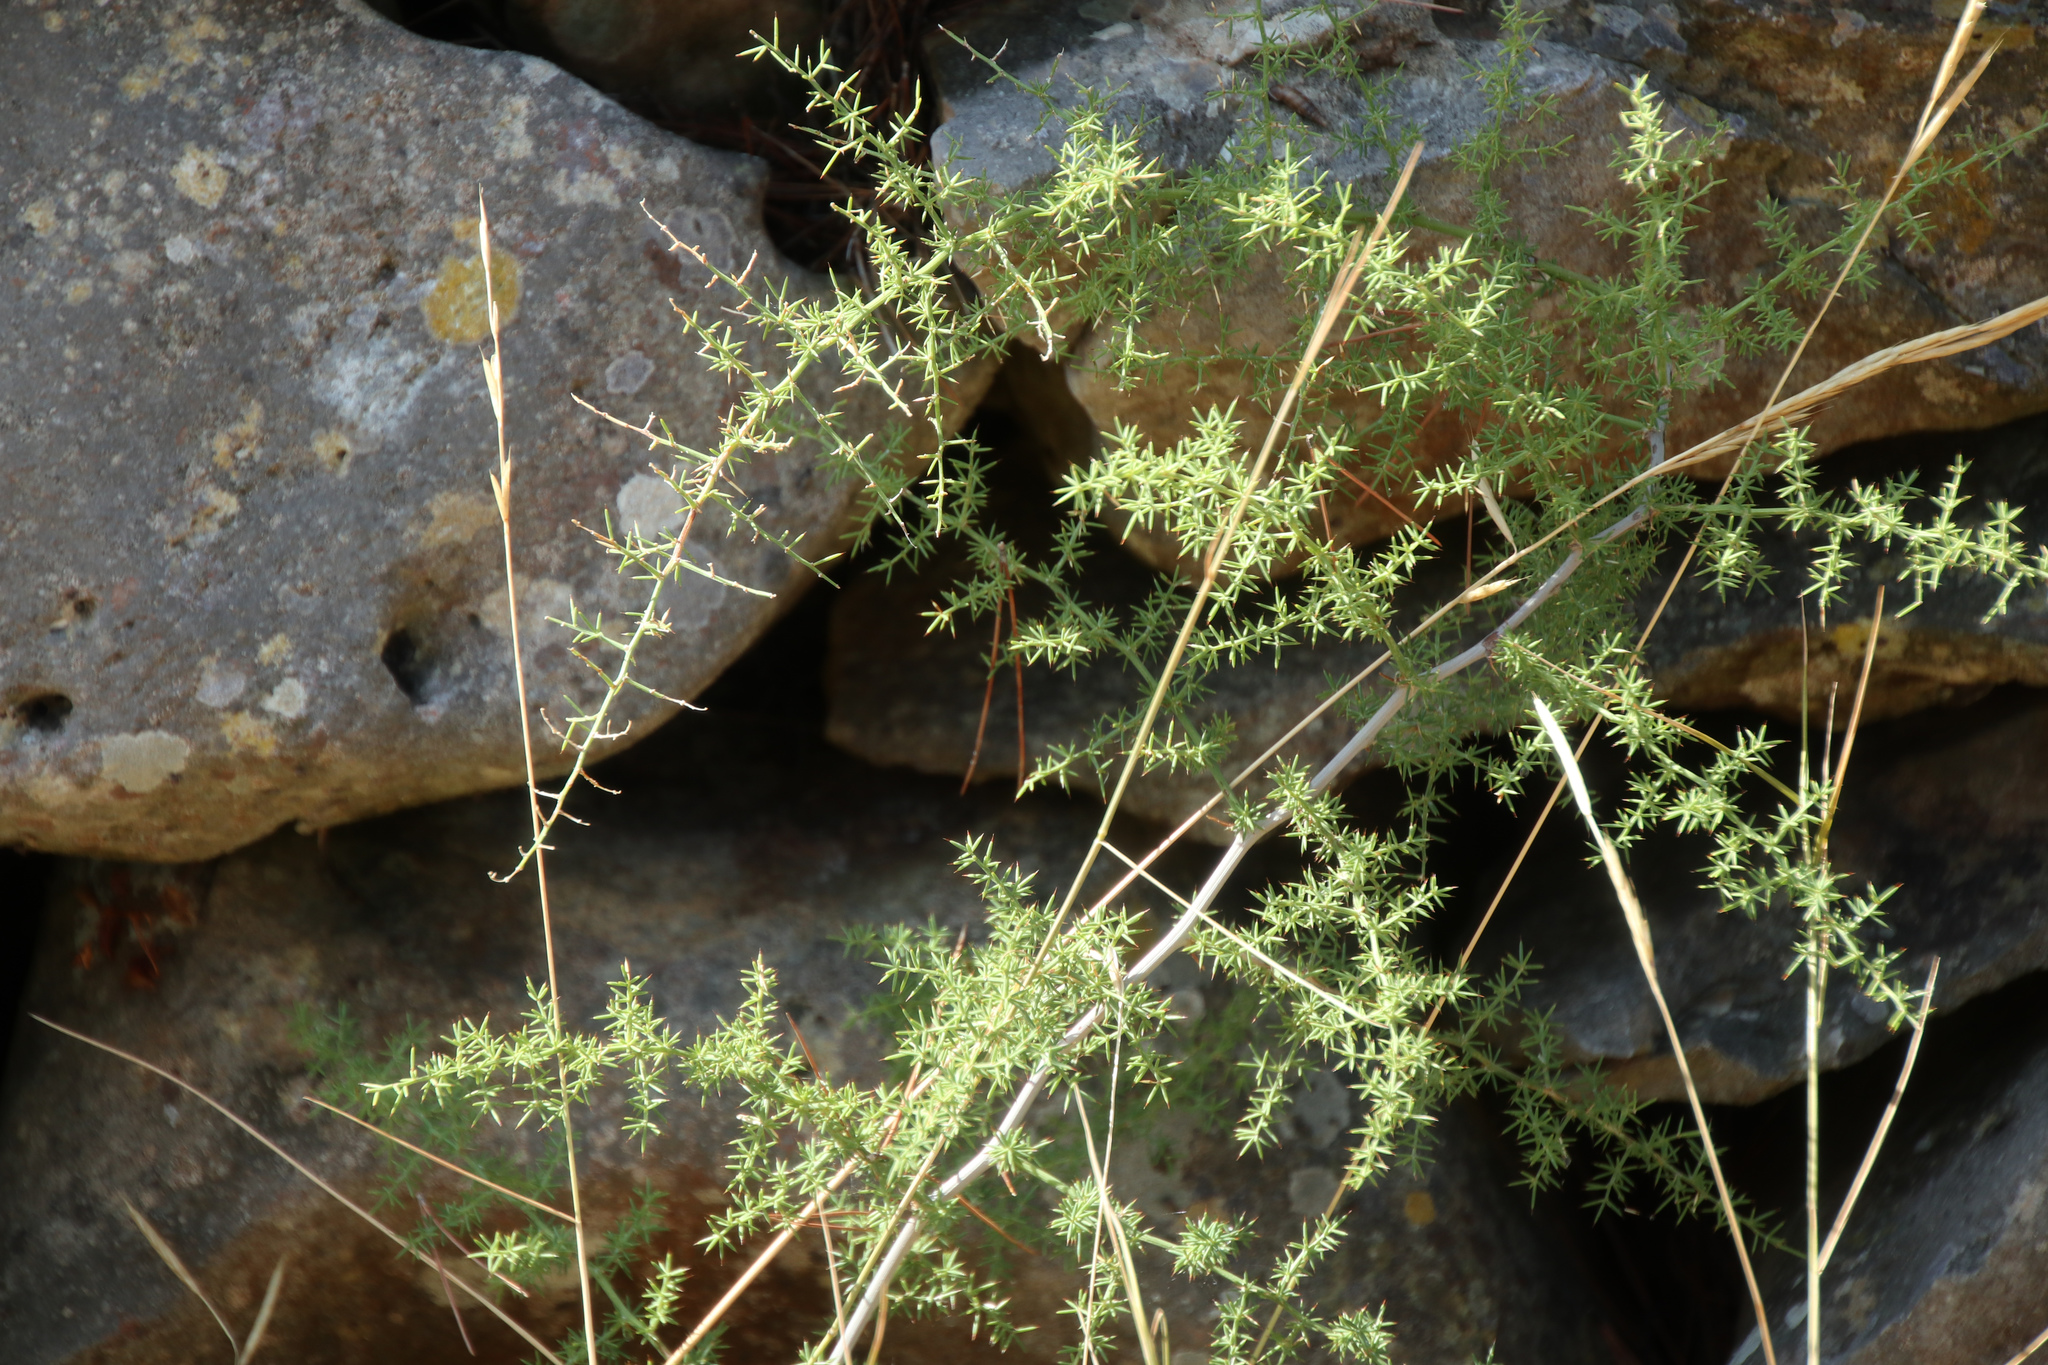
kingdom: Plantae
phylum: Tracheophyta
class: Liliopsida
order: Asparagales
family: Asparagaceae
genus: Asparagus
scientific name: Asparagus acutifolius
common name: Wild asparagus
